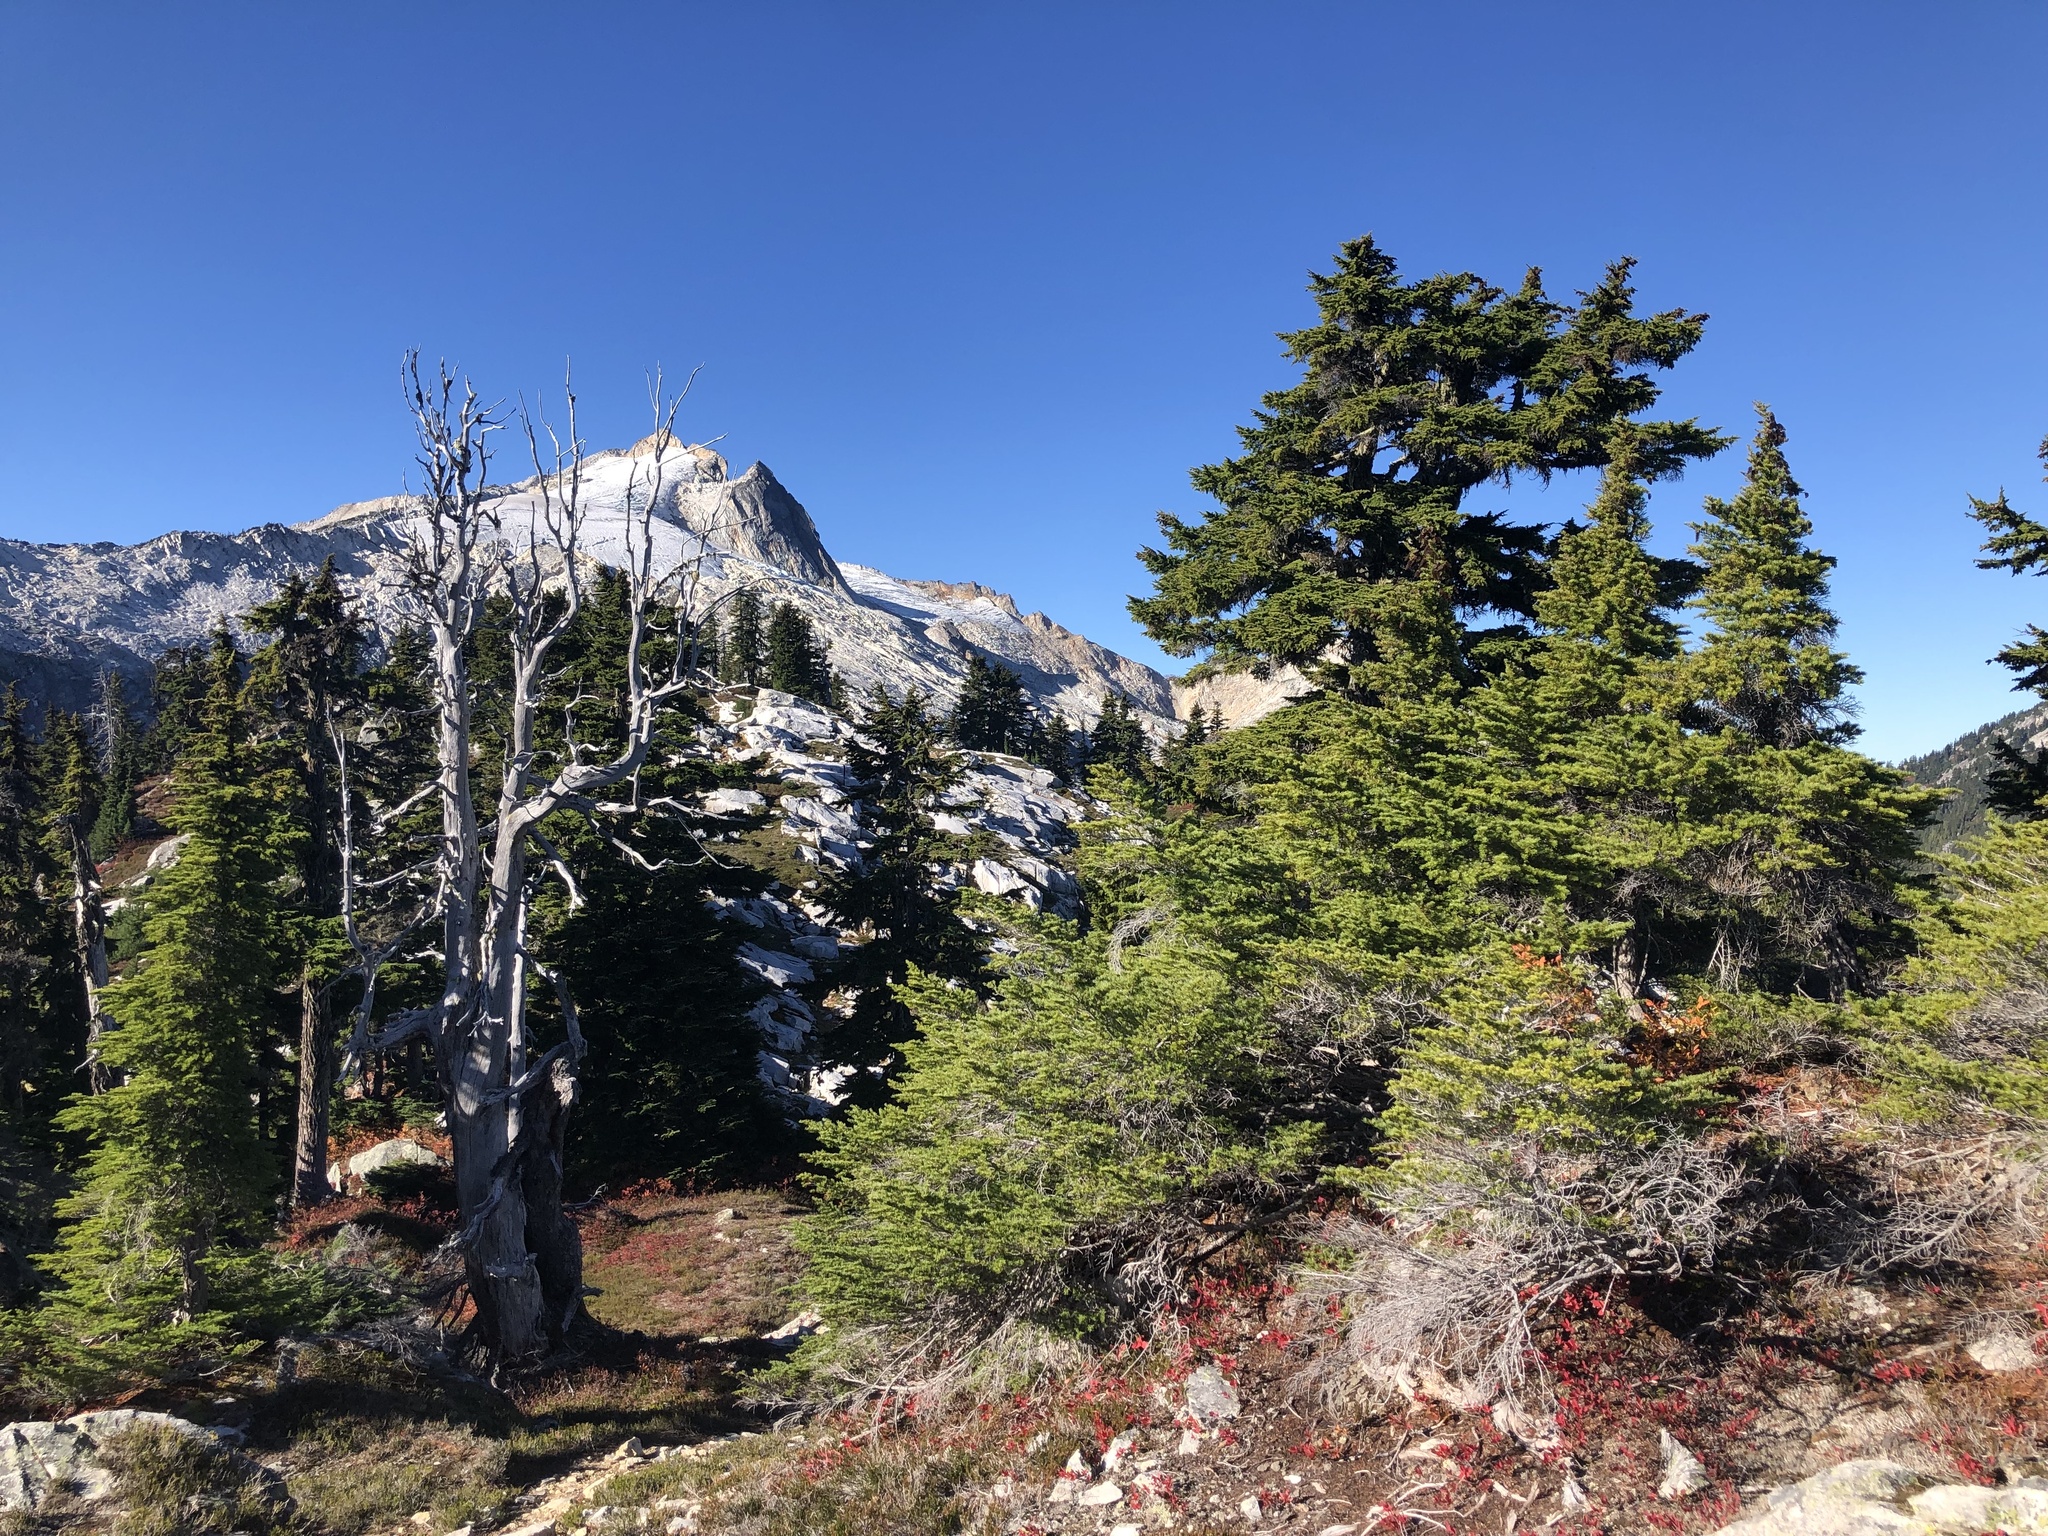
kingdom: Plantae
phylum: Tracheophyta
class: Pinopsida
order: Pinales
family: Pinaceae
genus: Tsuga
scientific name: Tsuga mertensiana
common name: Mountain hemlock
